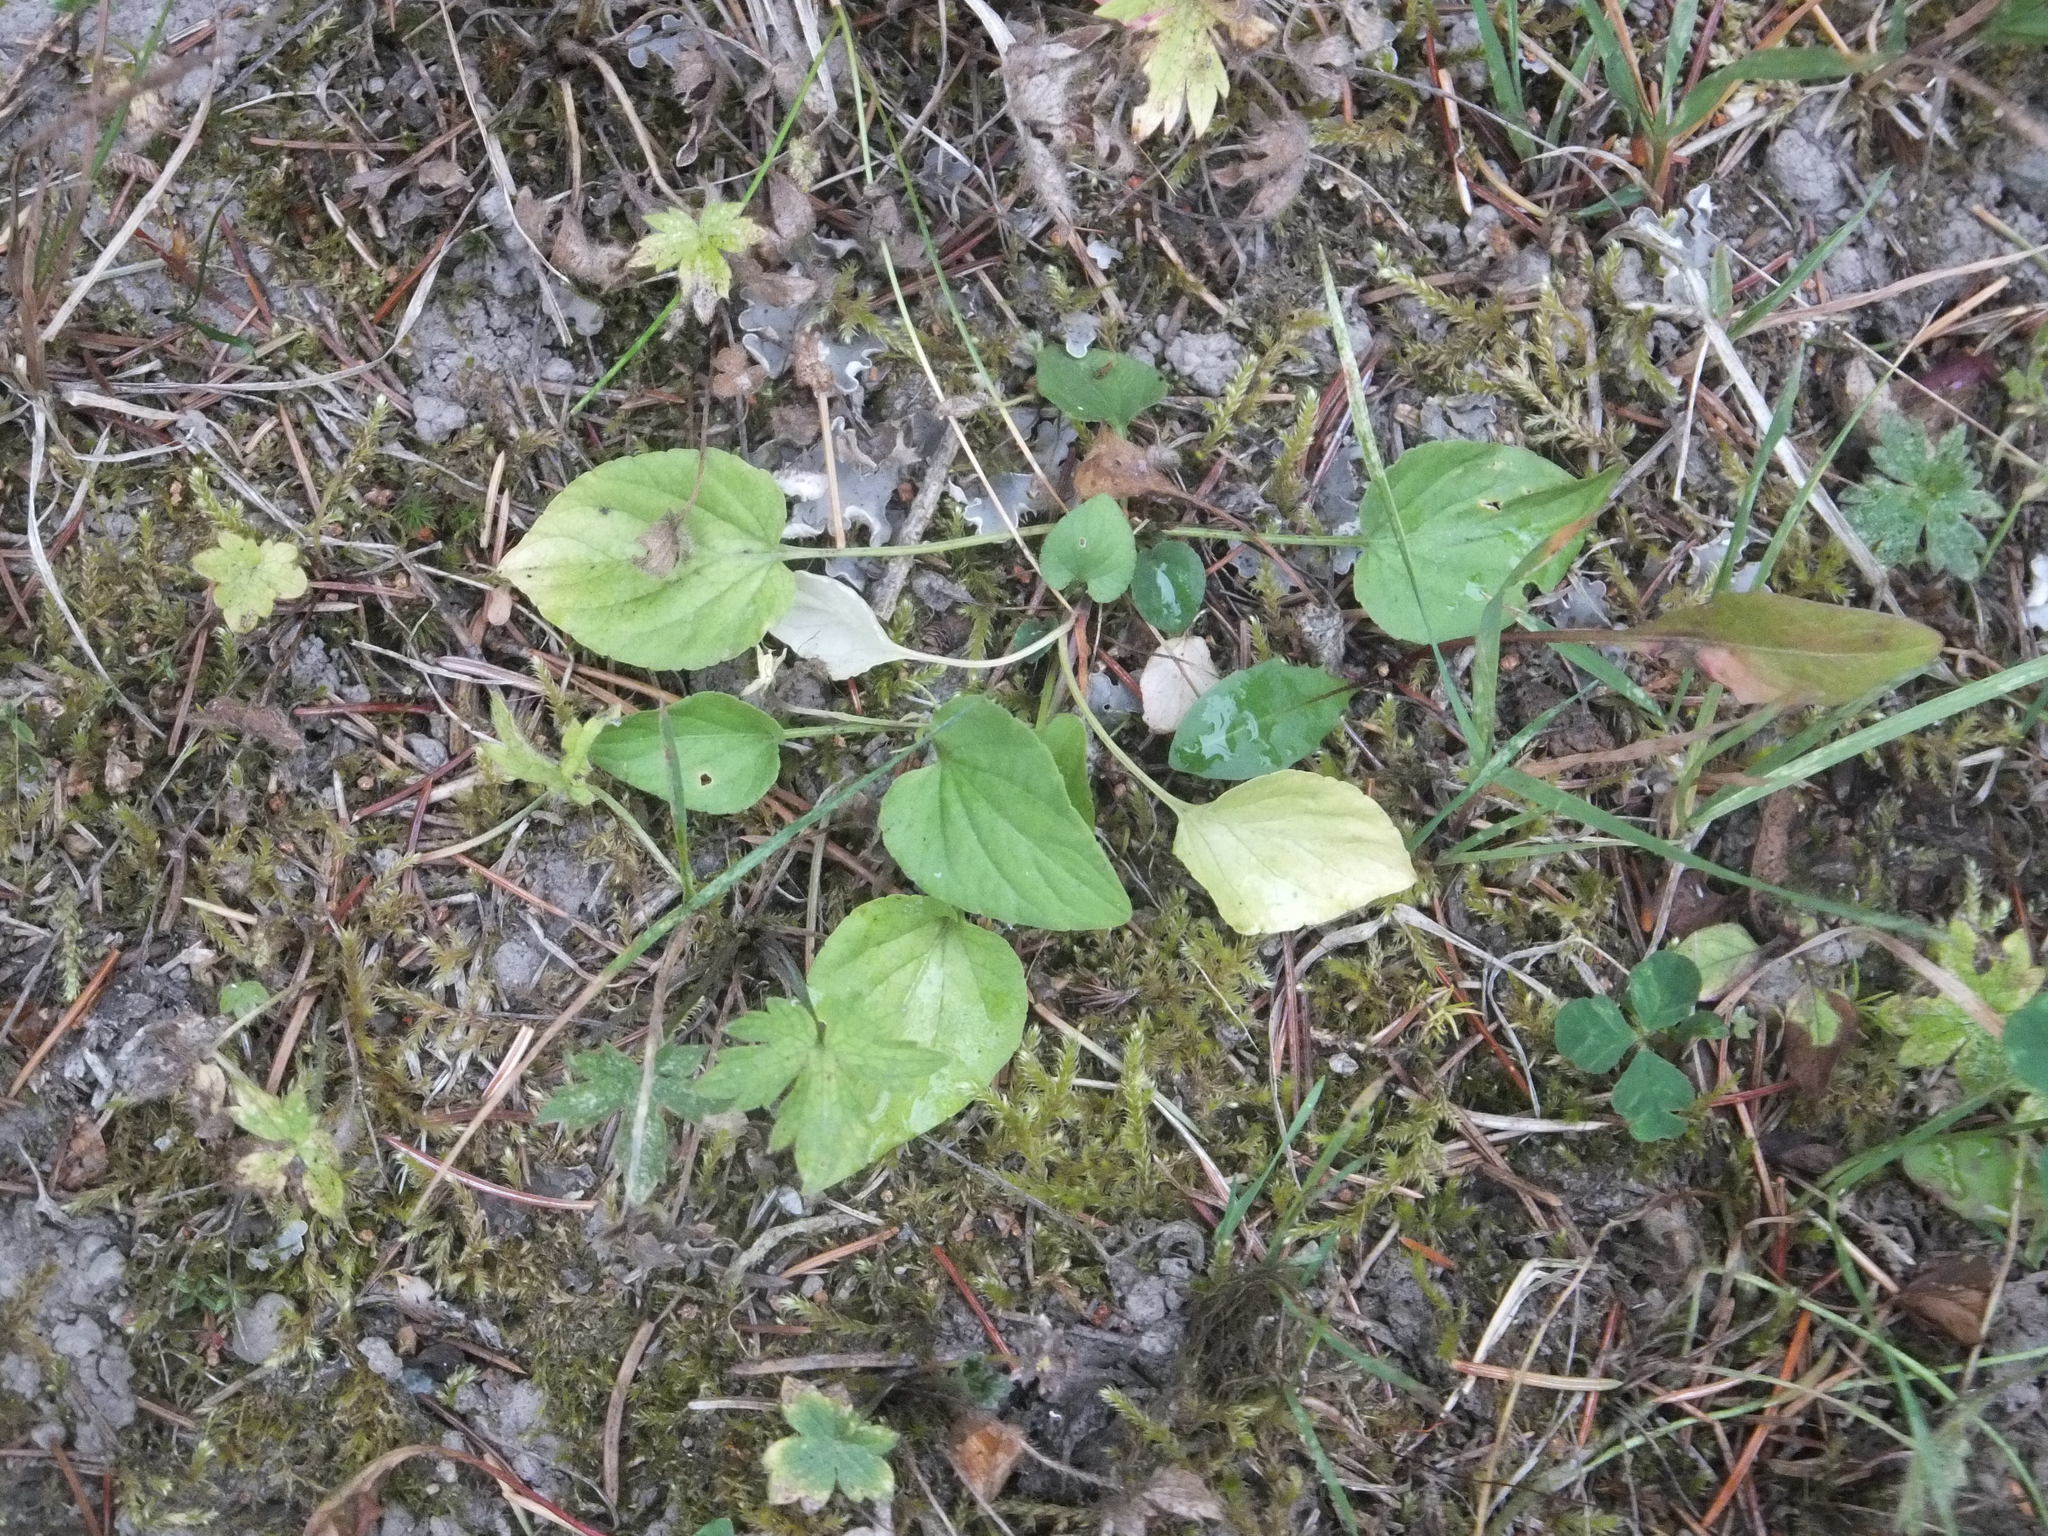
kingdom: Plantae
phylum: Tracheophyta
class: Magnoliopsida
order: Malpighiales
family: Violaceae
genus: Viola
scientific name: Viola adunca
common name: Sand violet
